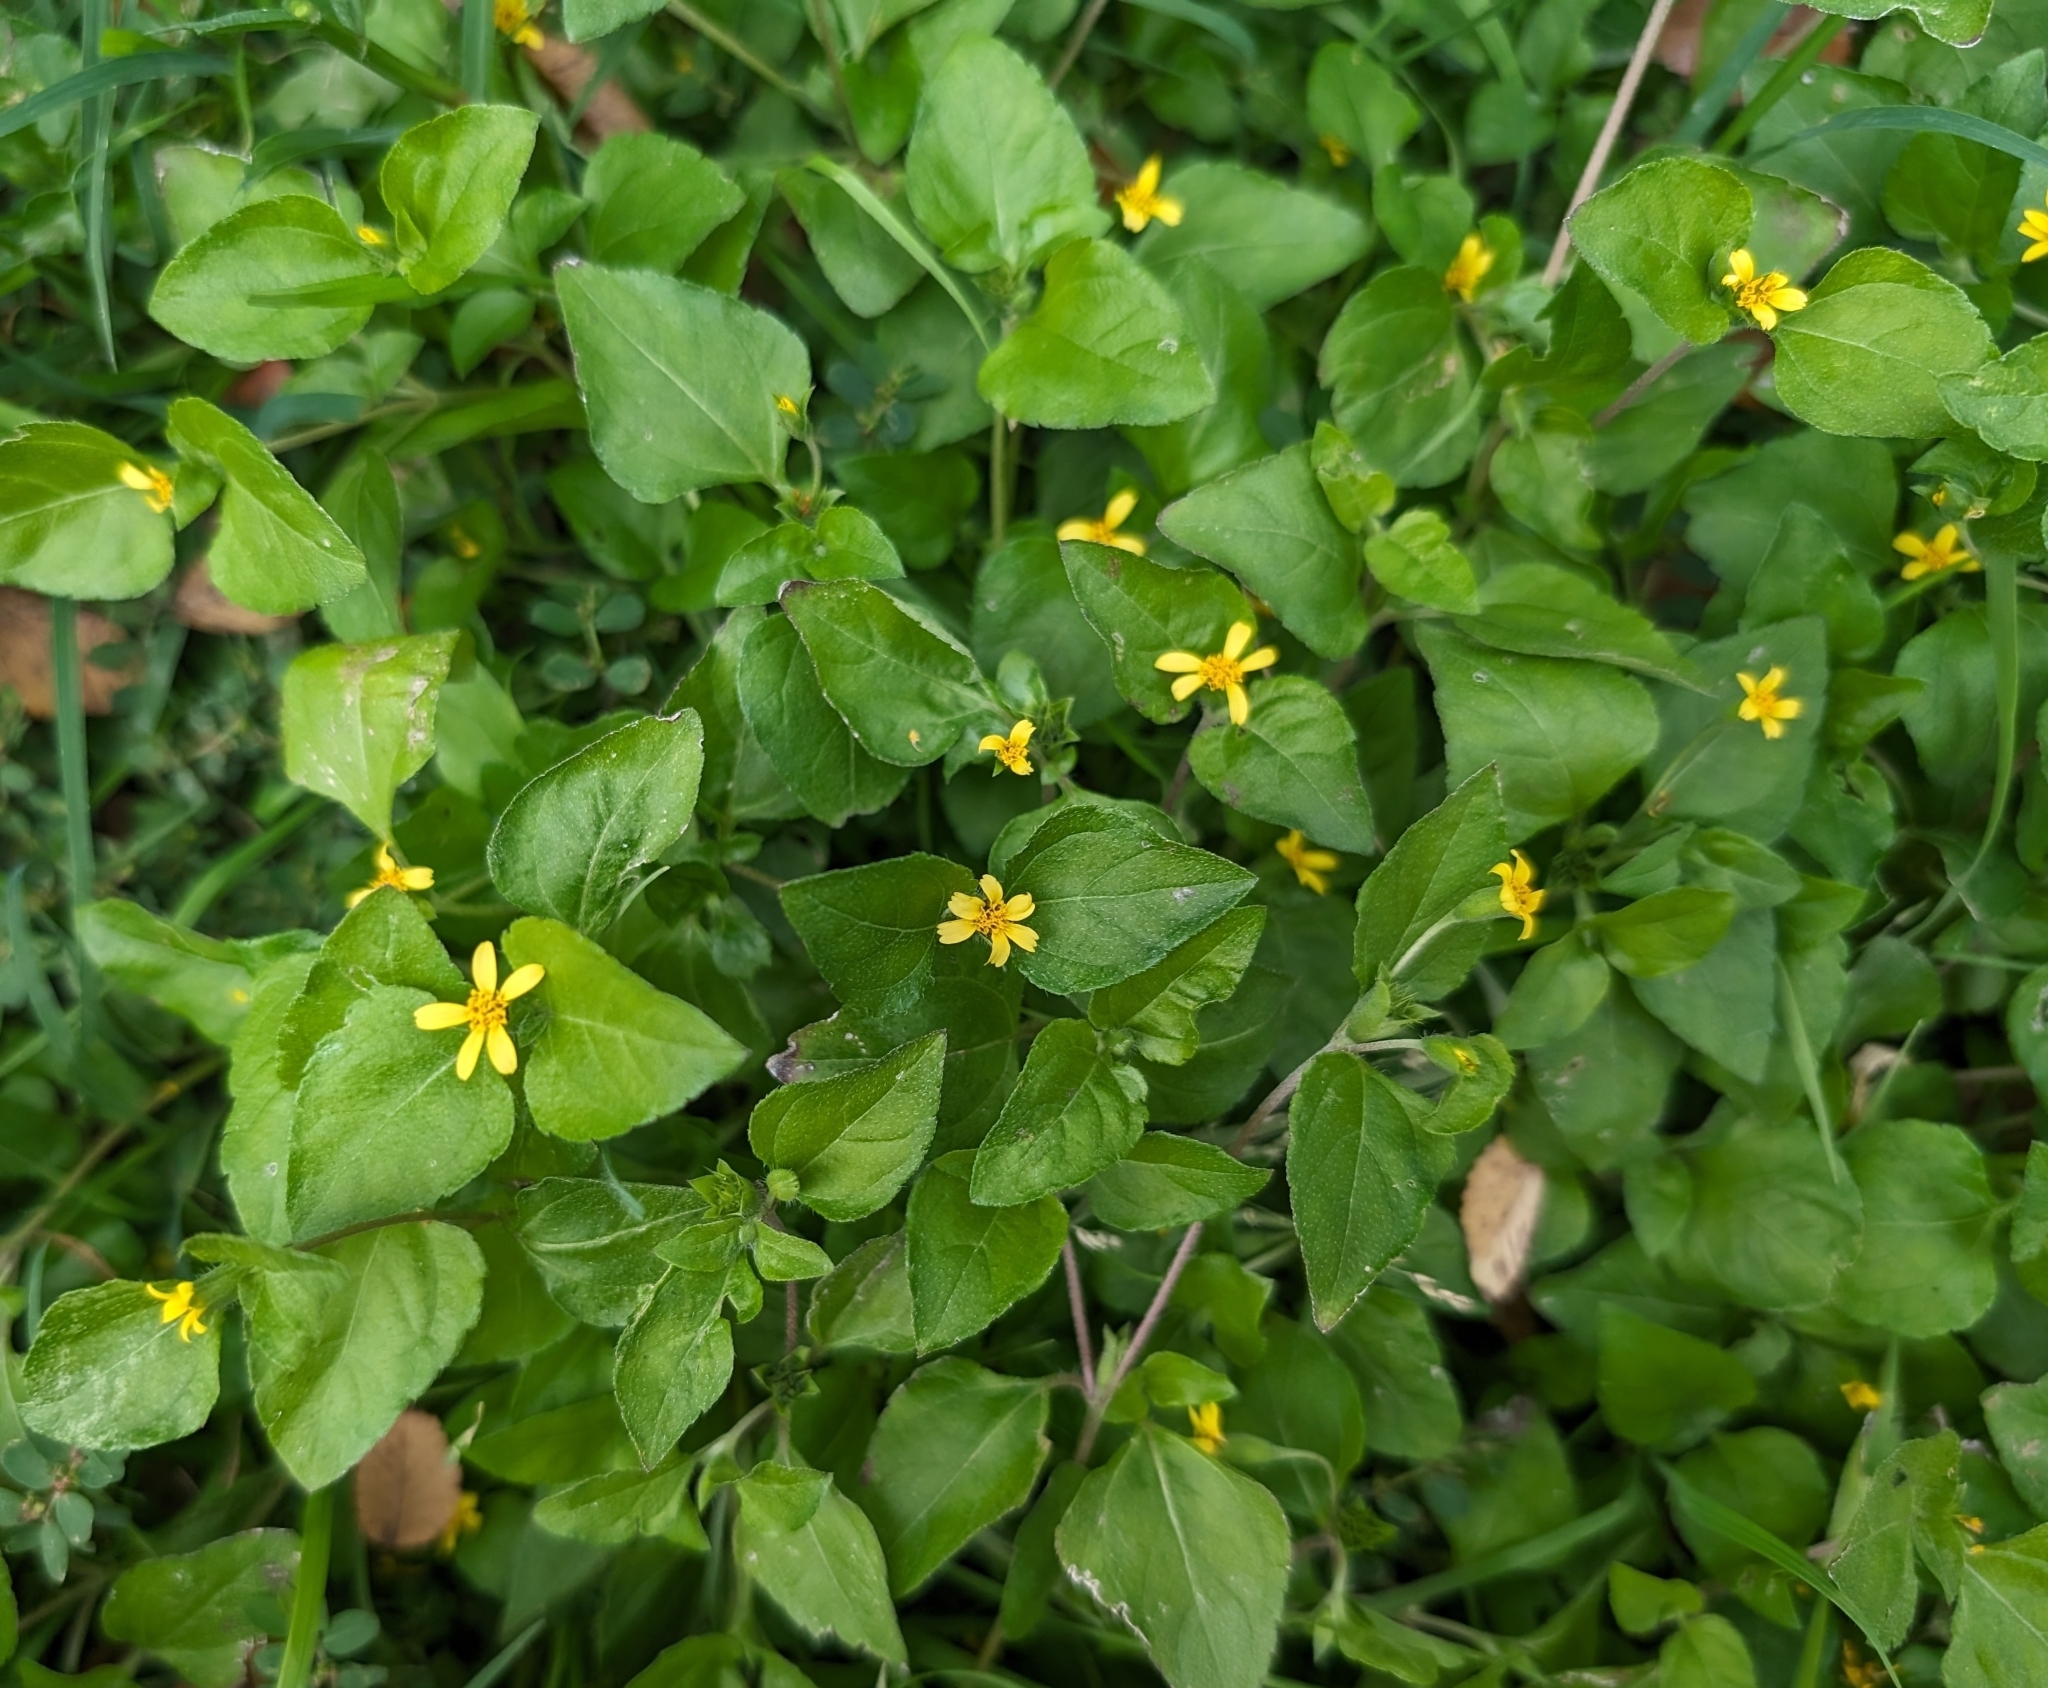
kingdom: Plantae
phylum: Tracheophyta
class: Magnoliopsida
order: Asterales
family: Asteraceae
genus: Calyptocarpus
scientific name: Calyptocarpus vialis
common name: Straggler daisy
